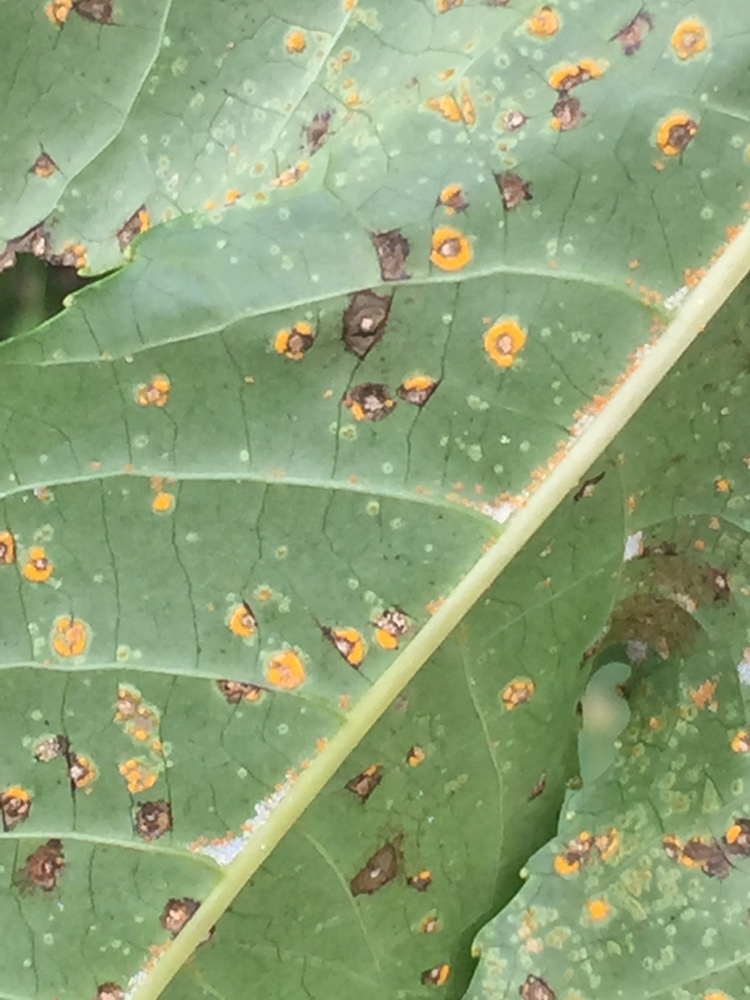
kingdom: Fungi
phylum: Basidiomycota
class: Pucciniomycetes
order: Pucciniales
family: Melampsoraceae
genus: Melampsora
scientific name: Melampsora ricini
